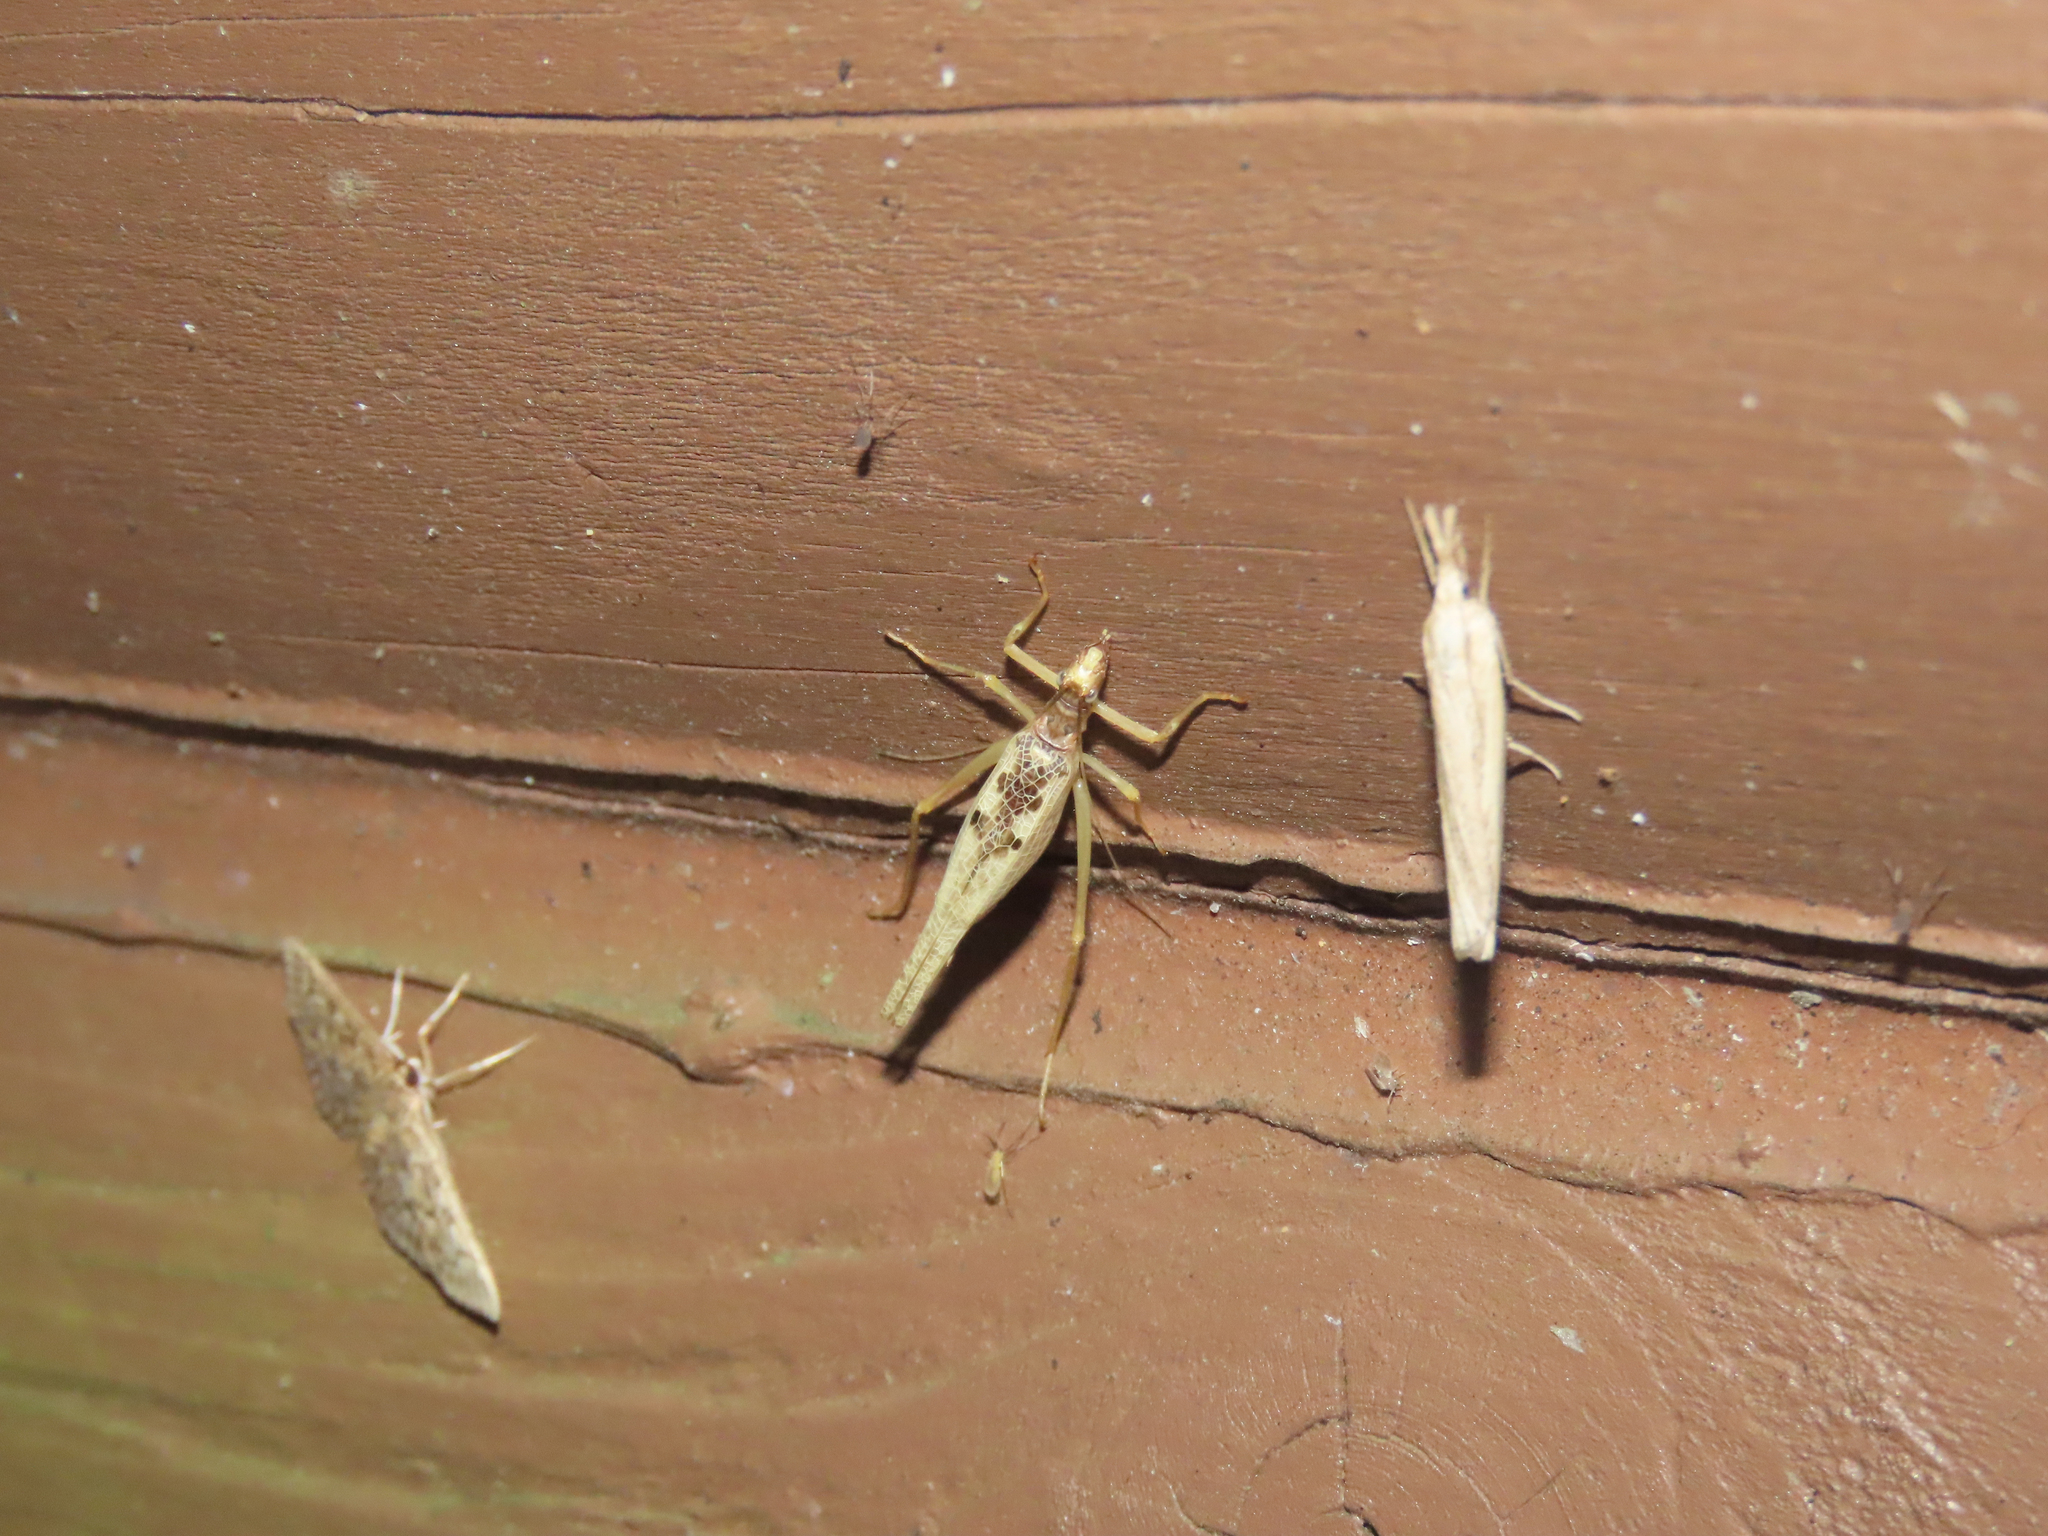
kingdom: Animalia
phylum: Arthropoda
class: Insecta
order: Orthoptera
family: Gryllidae
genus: Neoxabea
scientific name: Neoxabea bipunctata
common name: Two-spotted tree cricket
